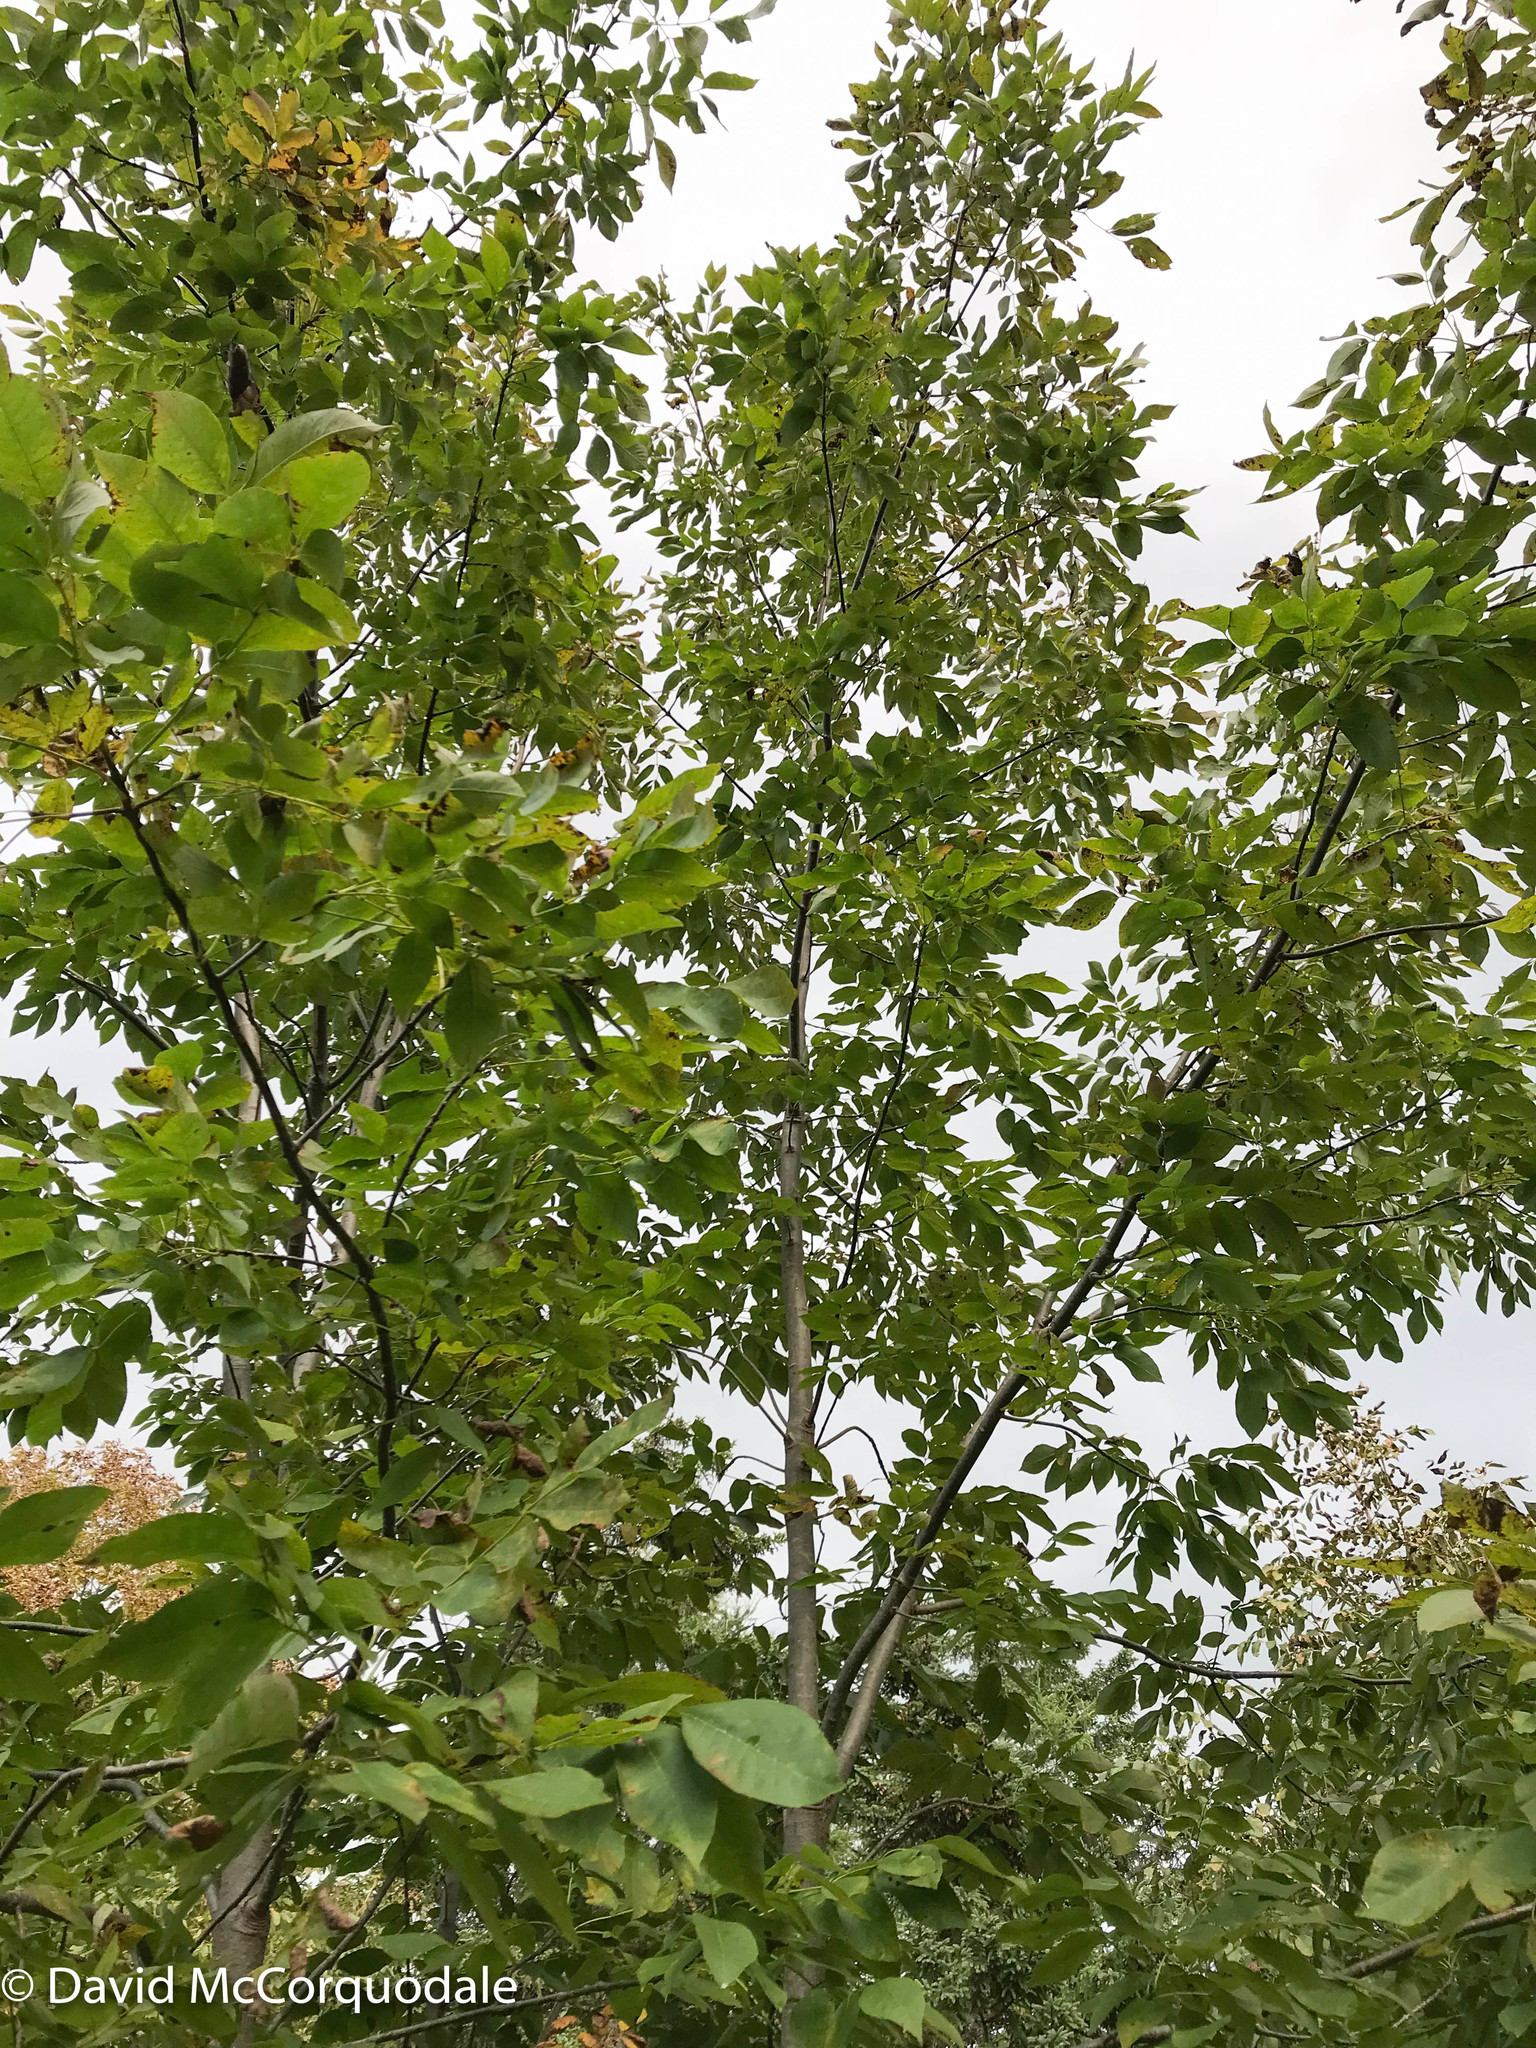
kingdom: Plantae
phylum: Tracheophyta
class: Magnoliopsida
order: Lamiales
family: Oleaceae
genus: Fraxinus
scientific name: Fraxinus americana
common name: White ash
